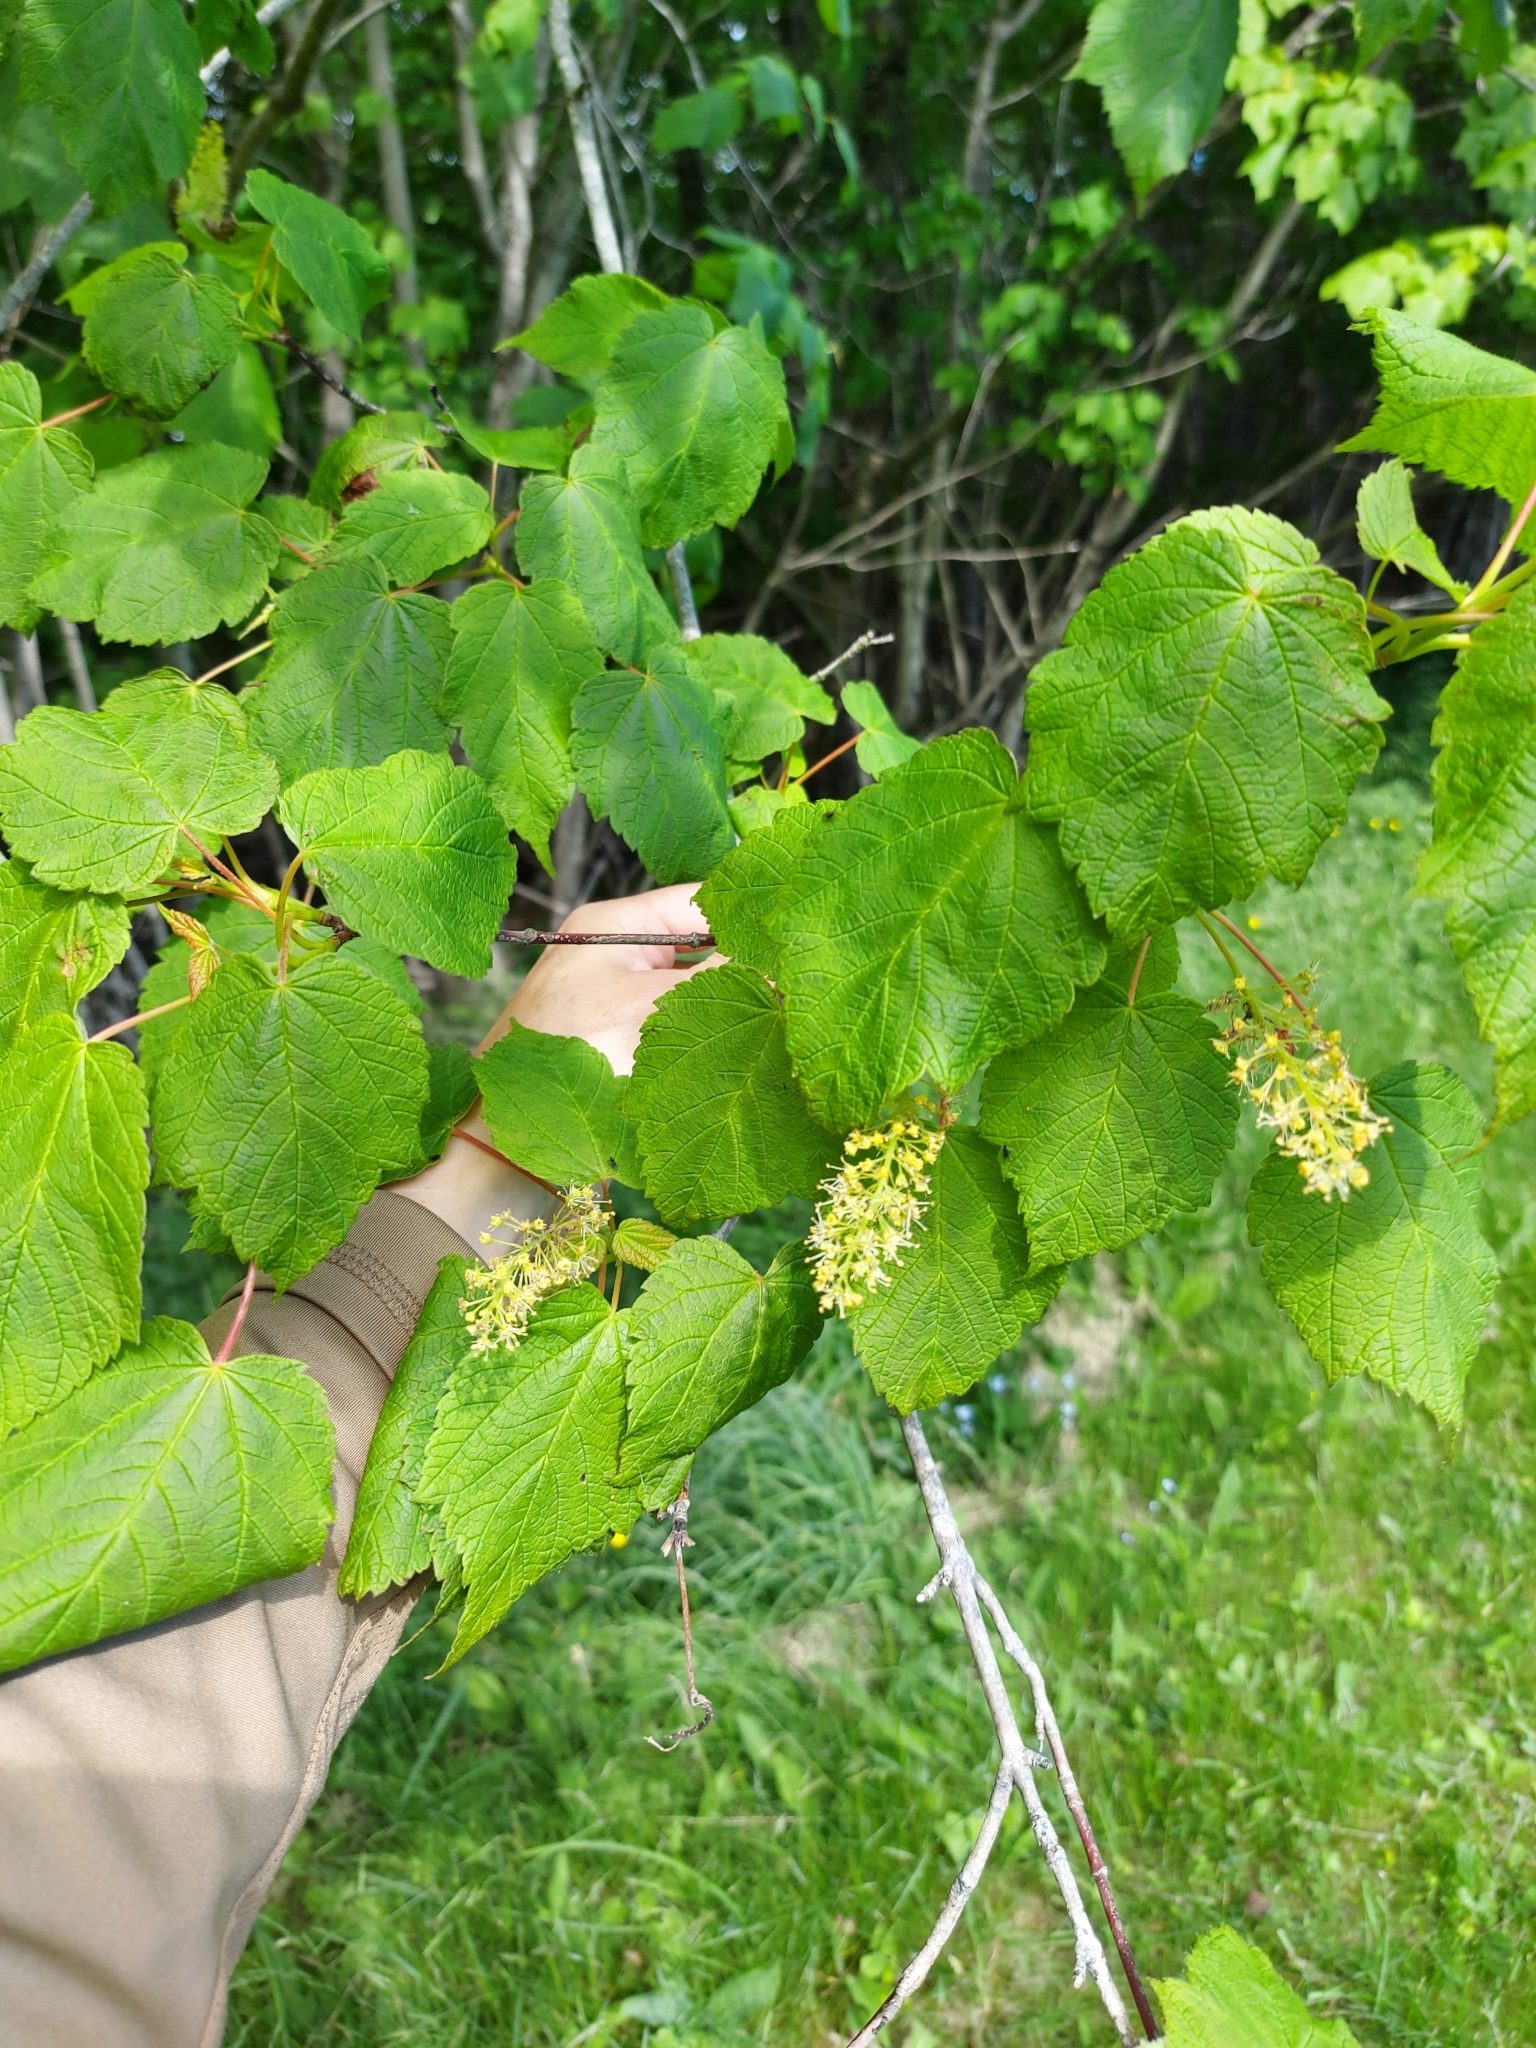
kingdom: Plantae
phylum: Tracheophyta
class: Magnoliopsida
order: Sapindales
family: Sapindaceae
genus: Acer
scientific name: Acer spicatum
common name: Mountain maple
